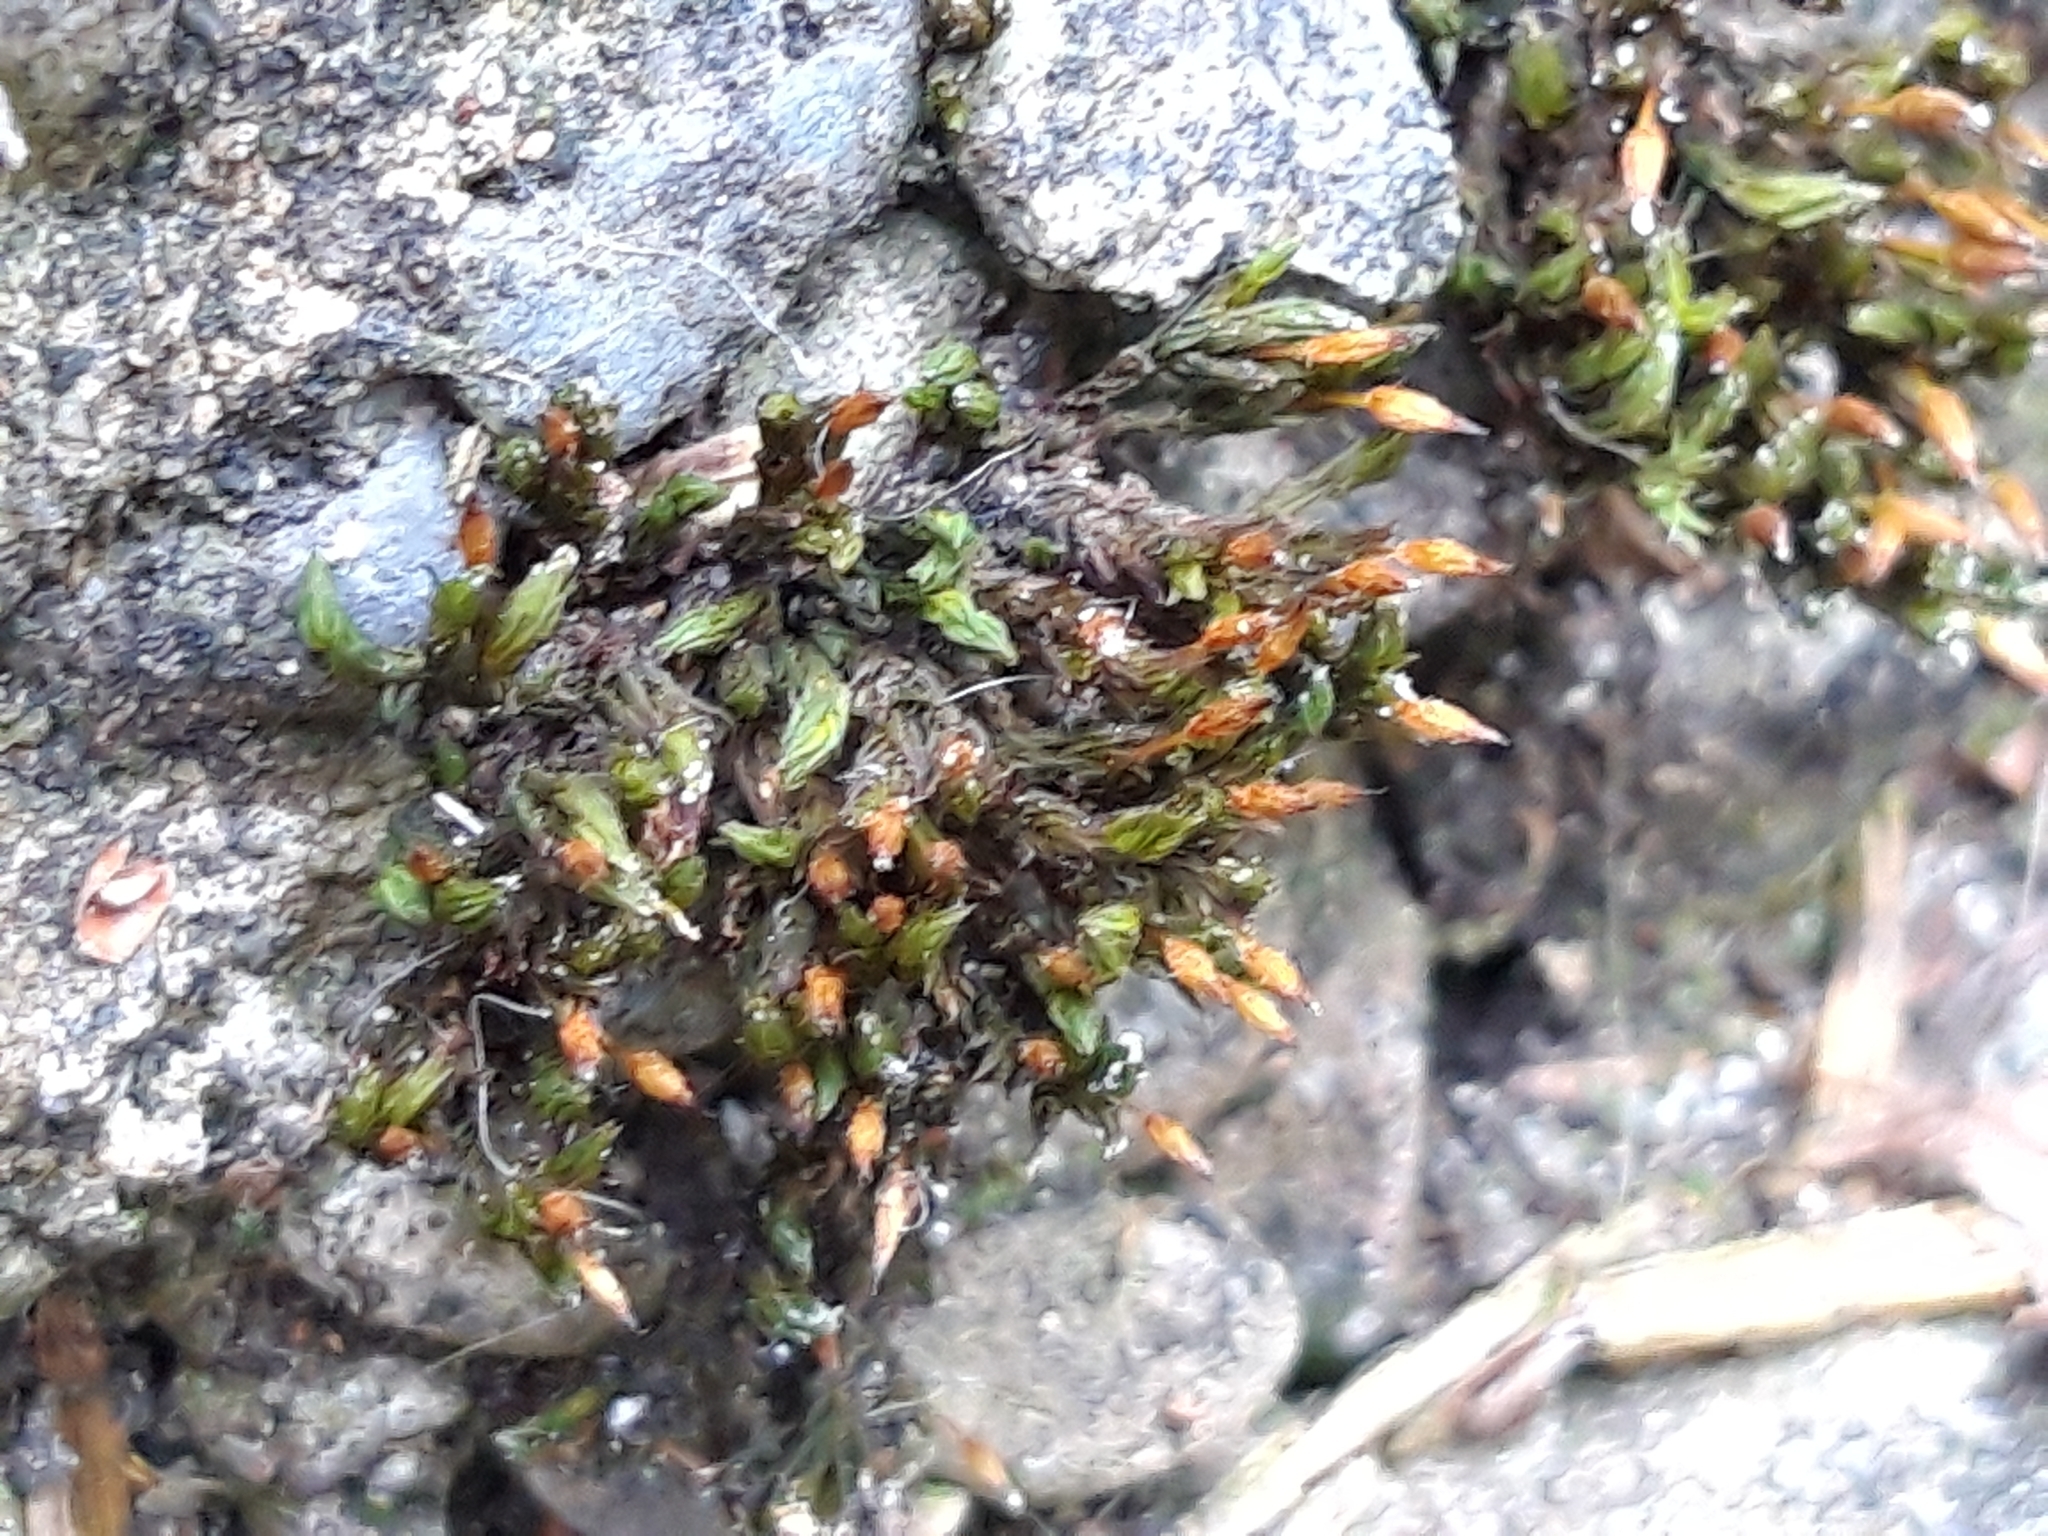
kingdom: Plantae
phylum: Bryophyta
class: Bryopsida
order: Orthotrichales
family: Orthotrichaceae
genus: Orthotrichum
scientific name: Orthotrichum anomalum
